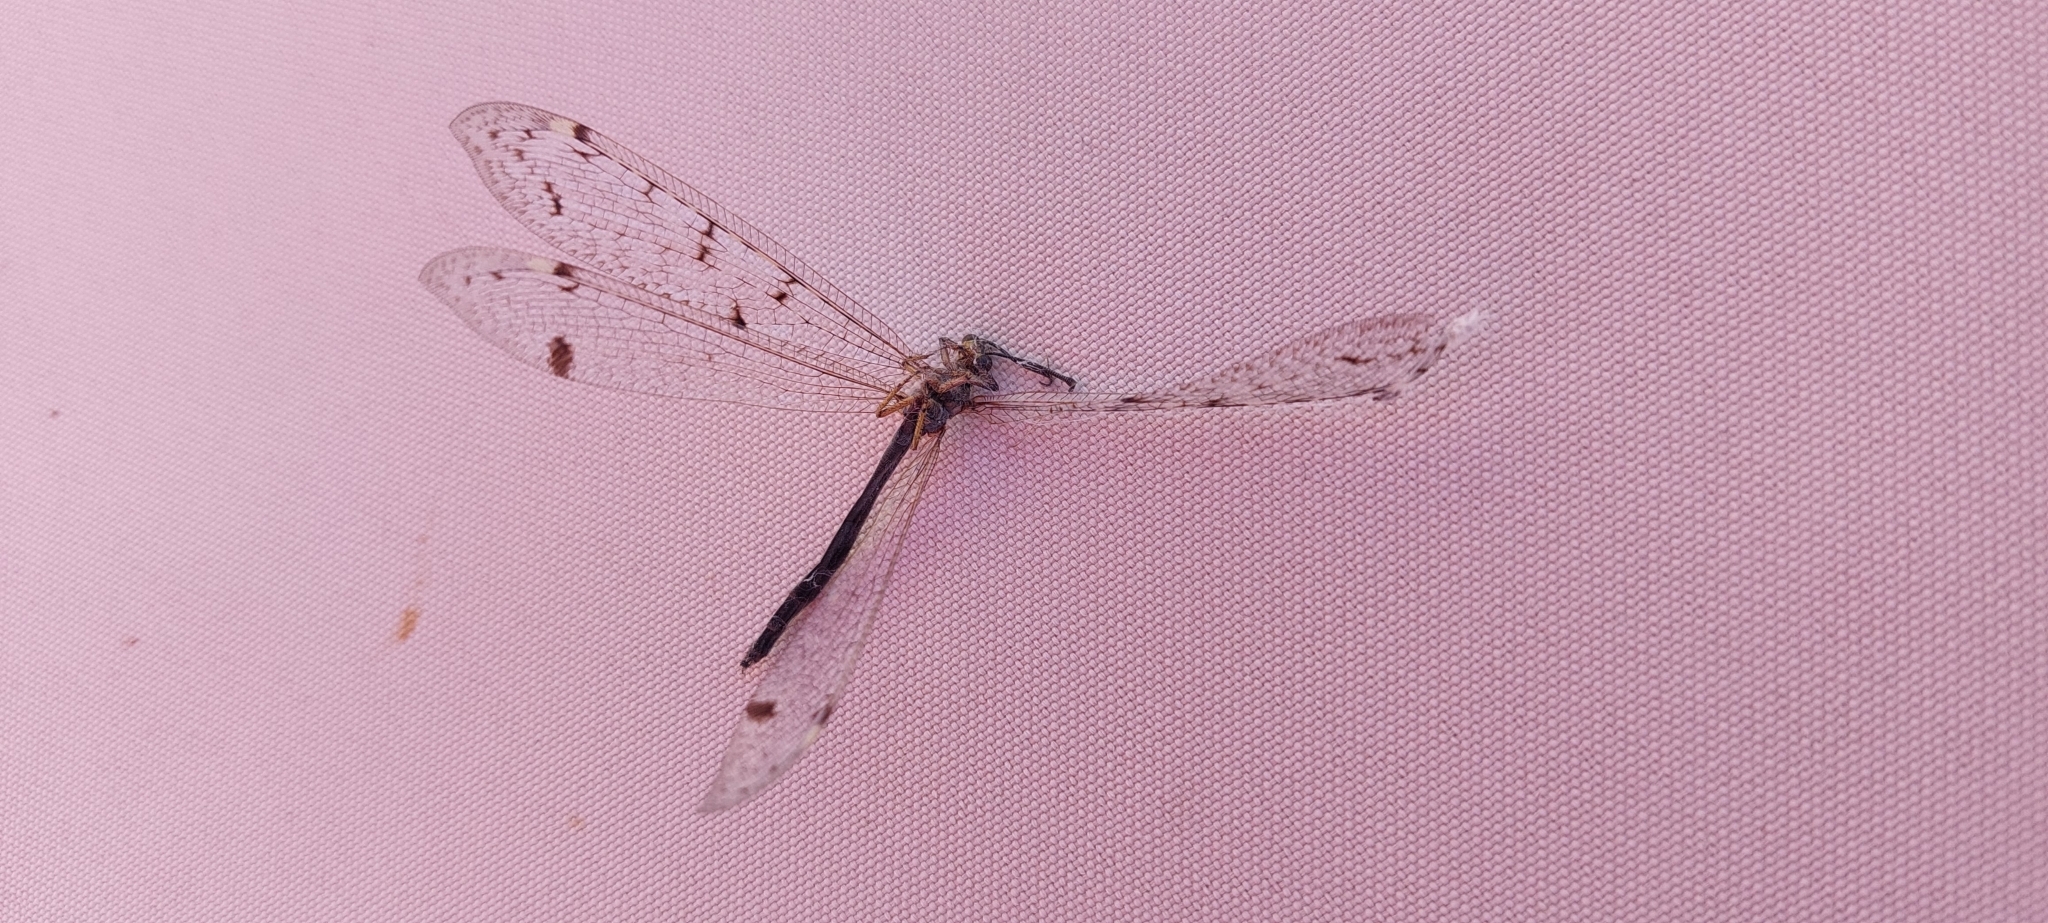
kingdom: Animalia
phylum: Arthropoda
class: Insecta
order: Neuroptera
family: Myrmeleontidae
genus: Distoleon
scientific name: Distoleon tetragrammicus
